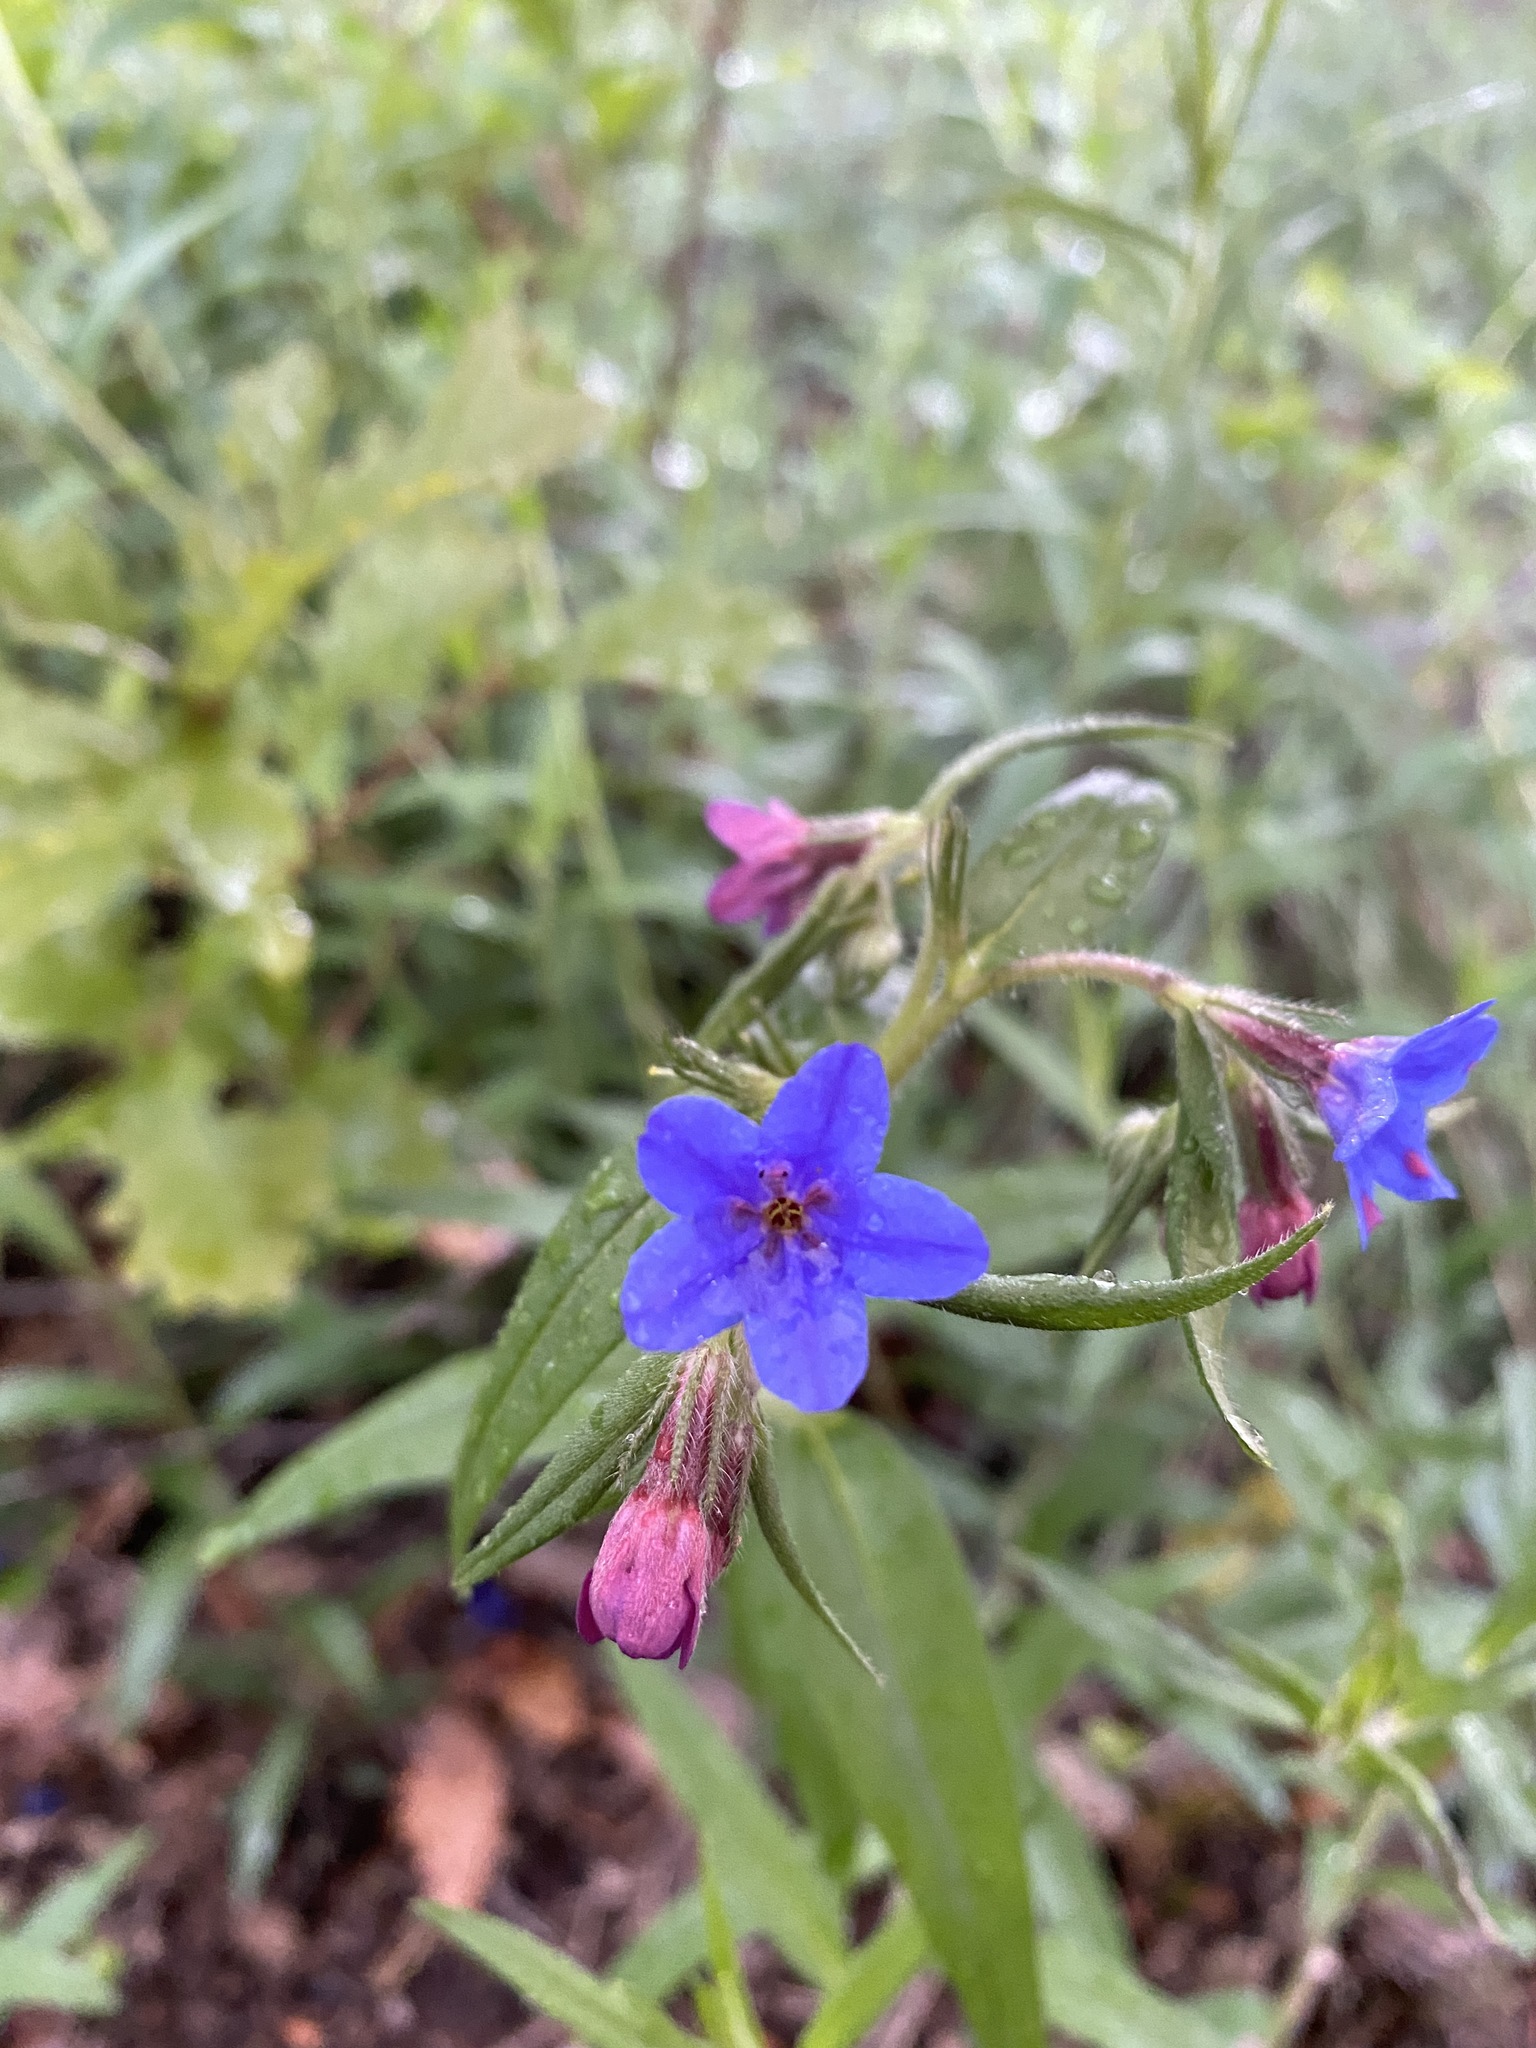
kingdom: Plantae
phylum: Tracheophyta
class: Magnoliopsida
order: Boraginales
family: Boraginaceae
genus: Aegonychon
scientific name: Aegonychon purpurocaeruleum
